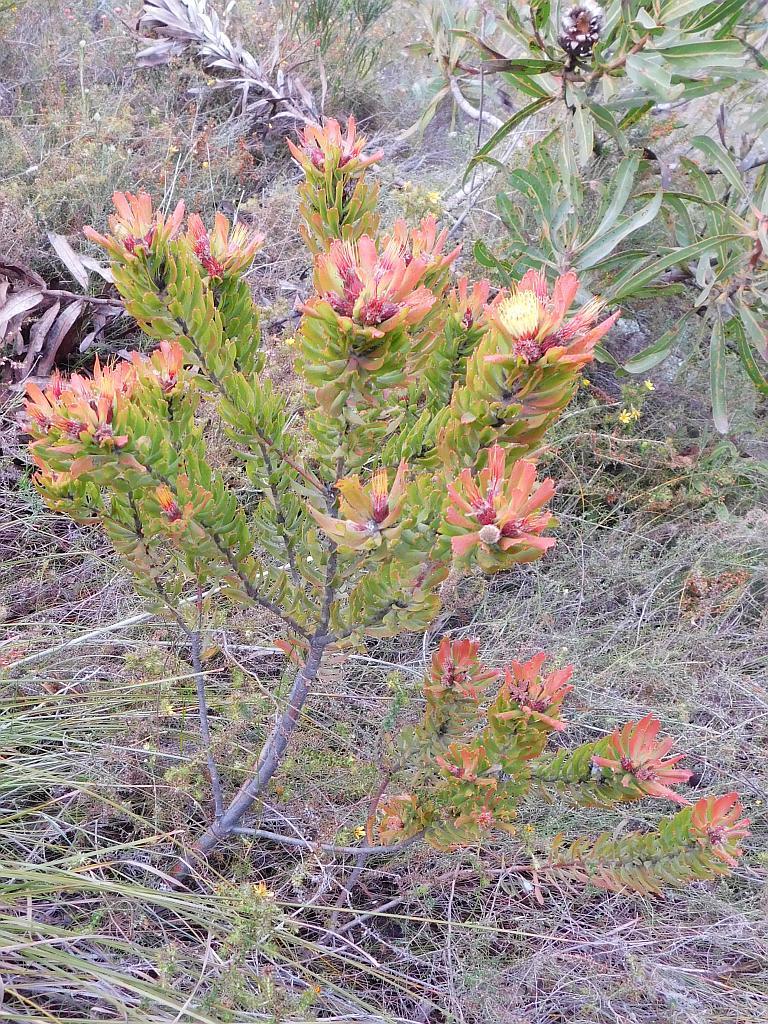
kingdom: Plantae
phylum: Tracheophyta
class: Magnoliopsida
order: Proteales
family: Proteaceae
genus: Leucospermum
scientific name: Leucospermum oleifolium
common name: Matches
